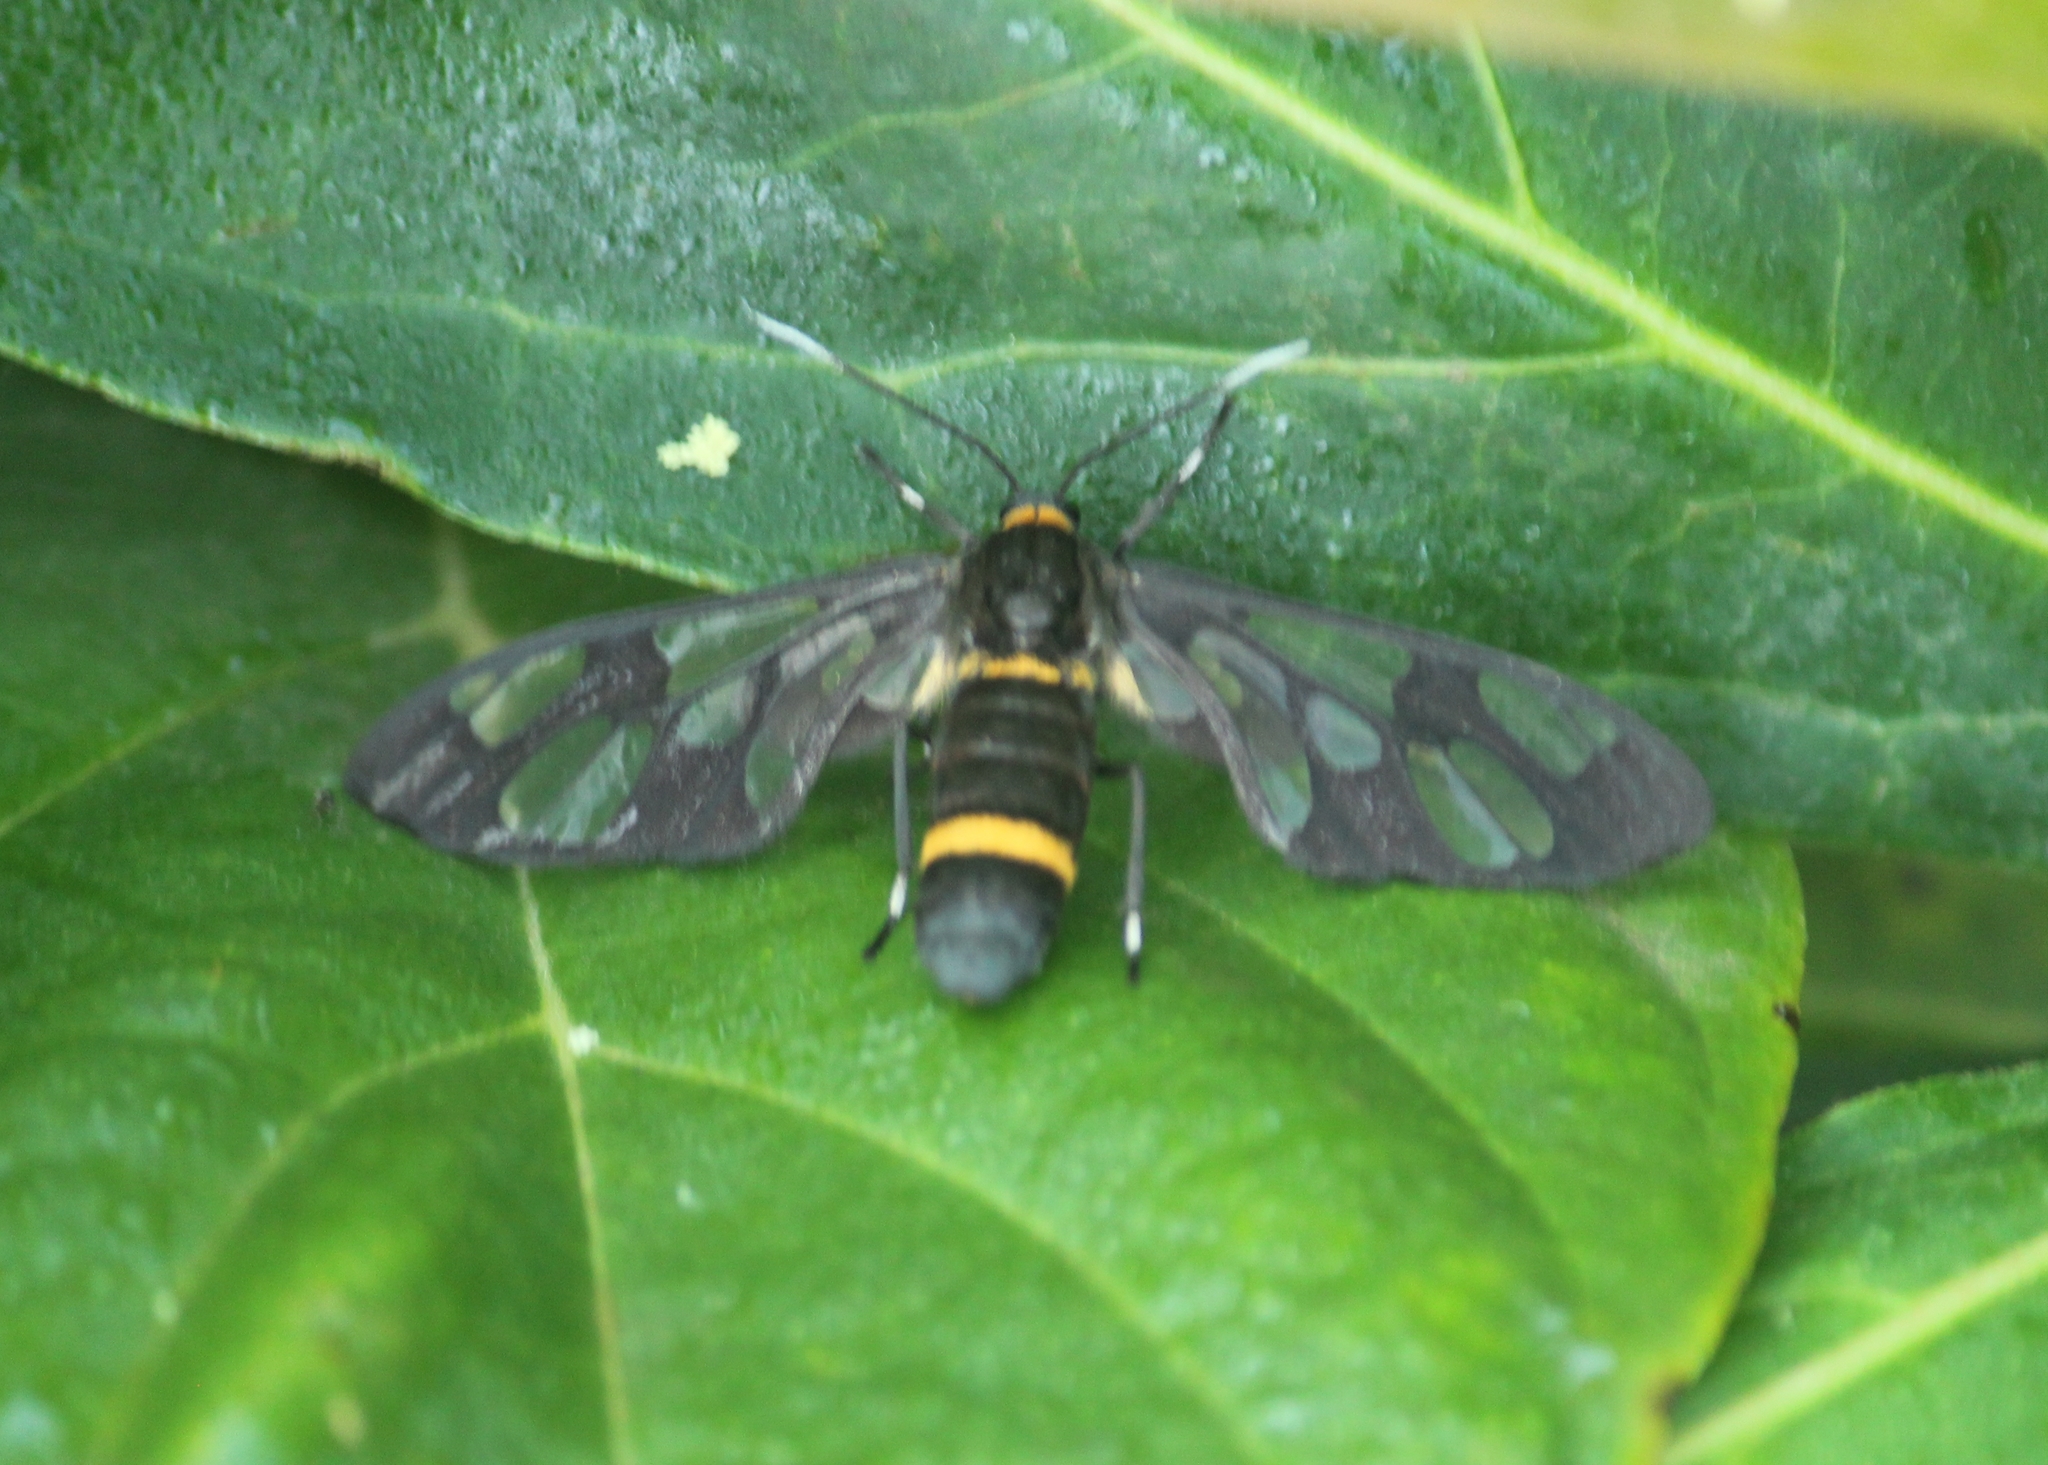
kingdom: Animalia
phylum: Arthropoda
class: Insecta
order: Lepidoptera
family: Erebidae
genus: Syntomoides
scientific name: Syntomoides imaon
